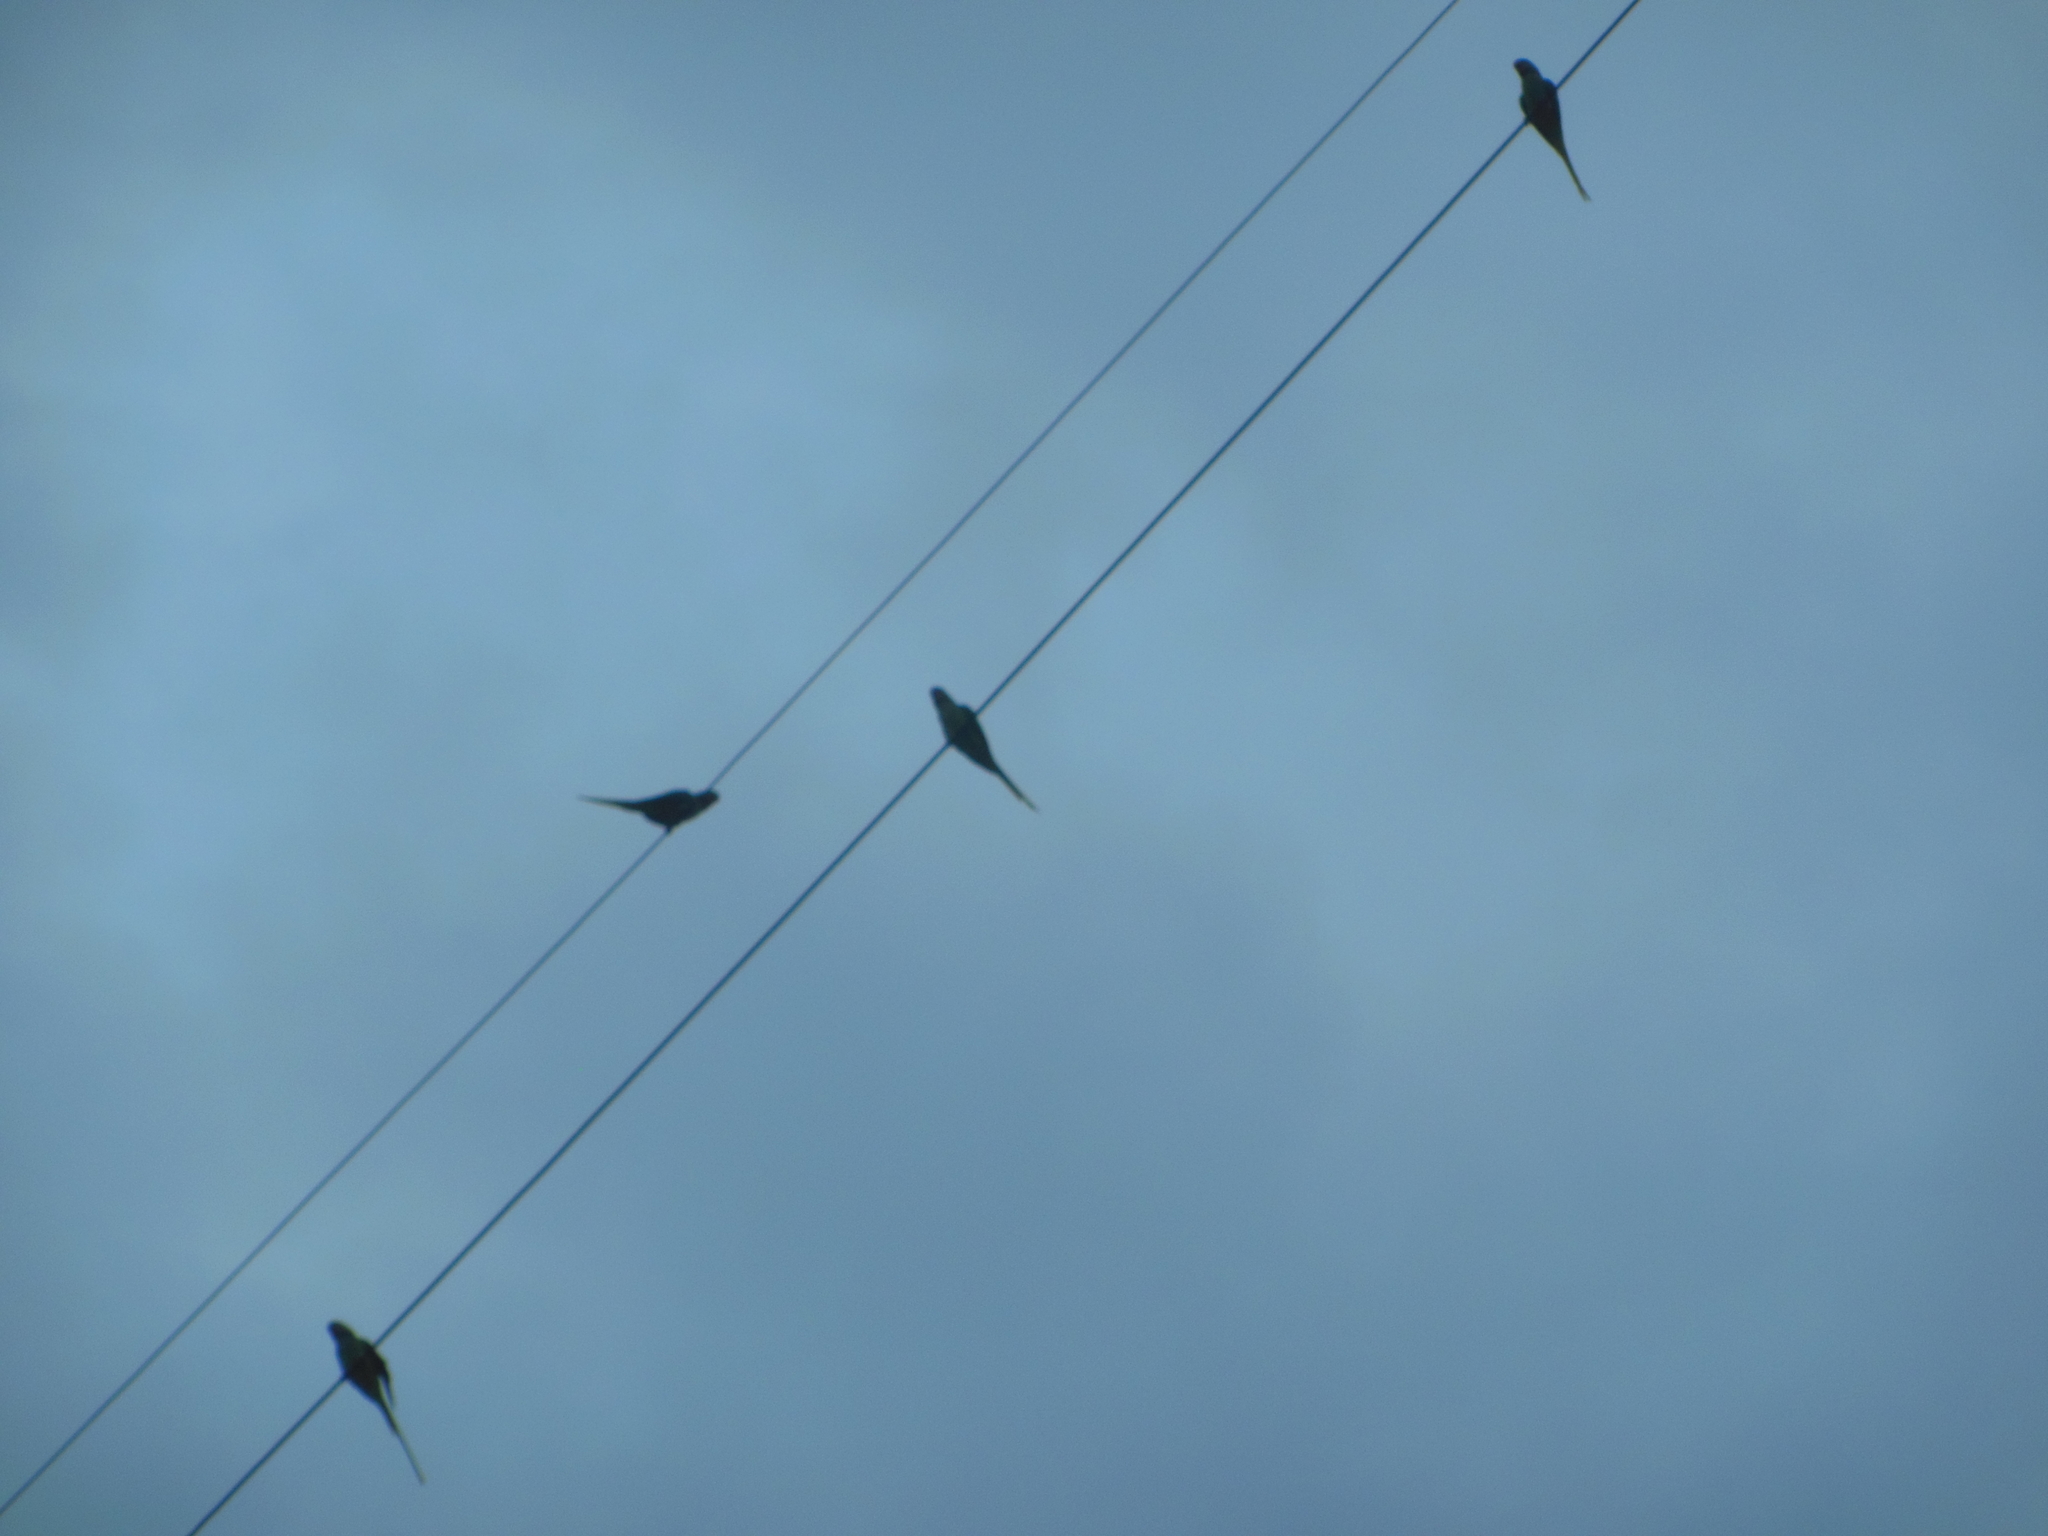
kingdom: Animalia
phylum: Chordata
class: Aves
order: Psittaciformes
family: Psittacidae
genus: Psittacula
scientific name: Psittacula krameri
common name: Rose-ringed parakeet
